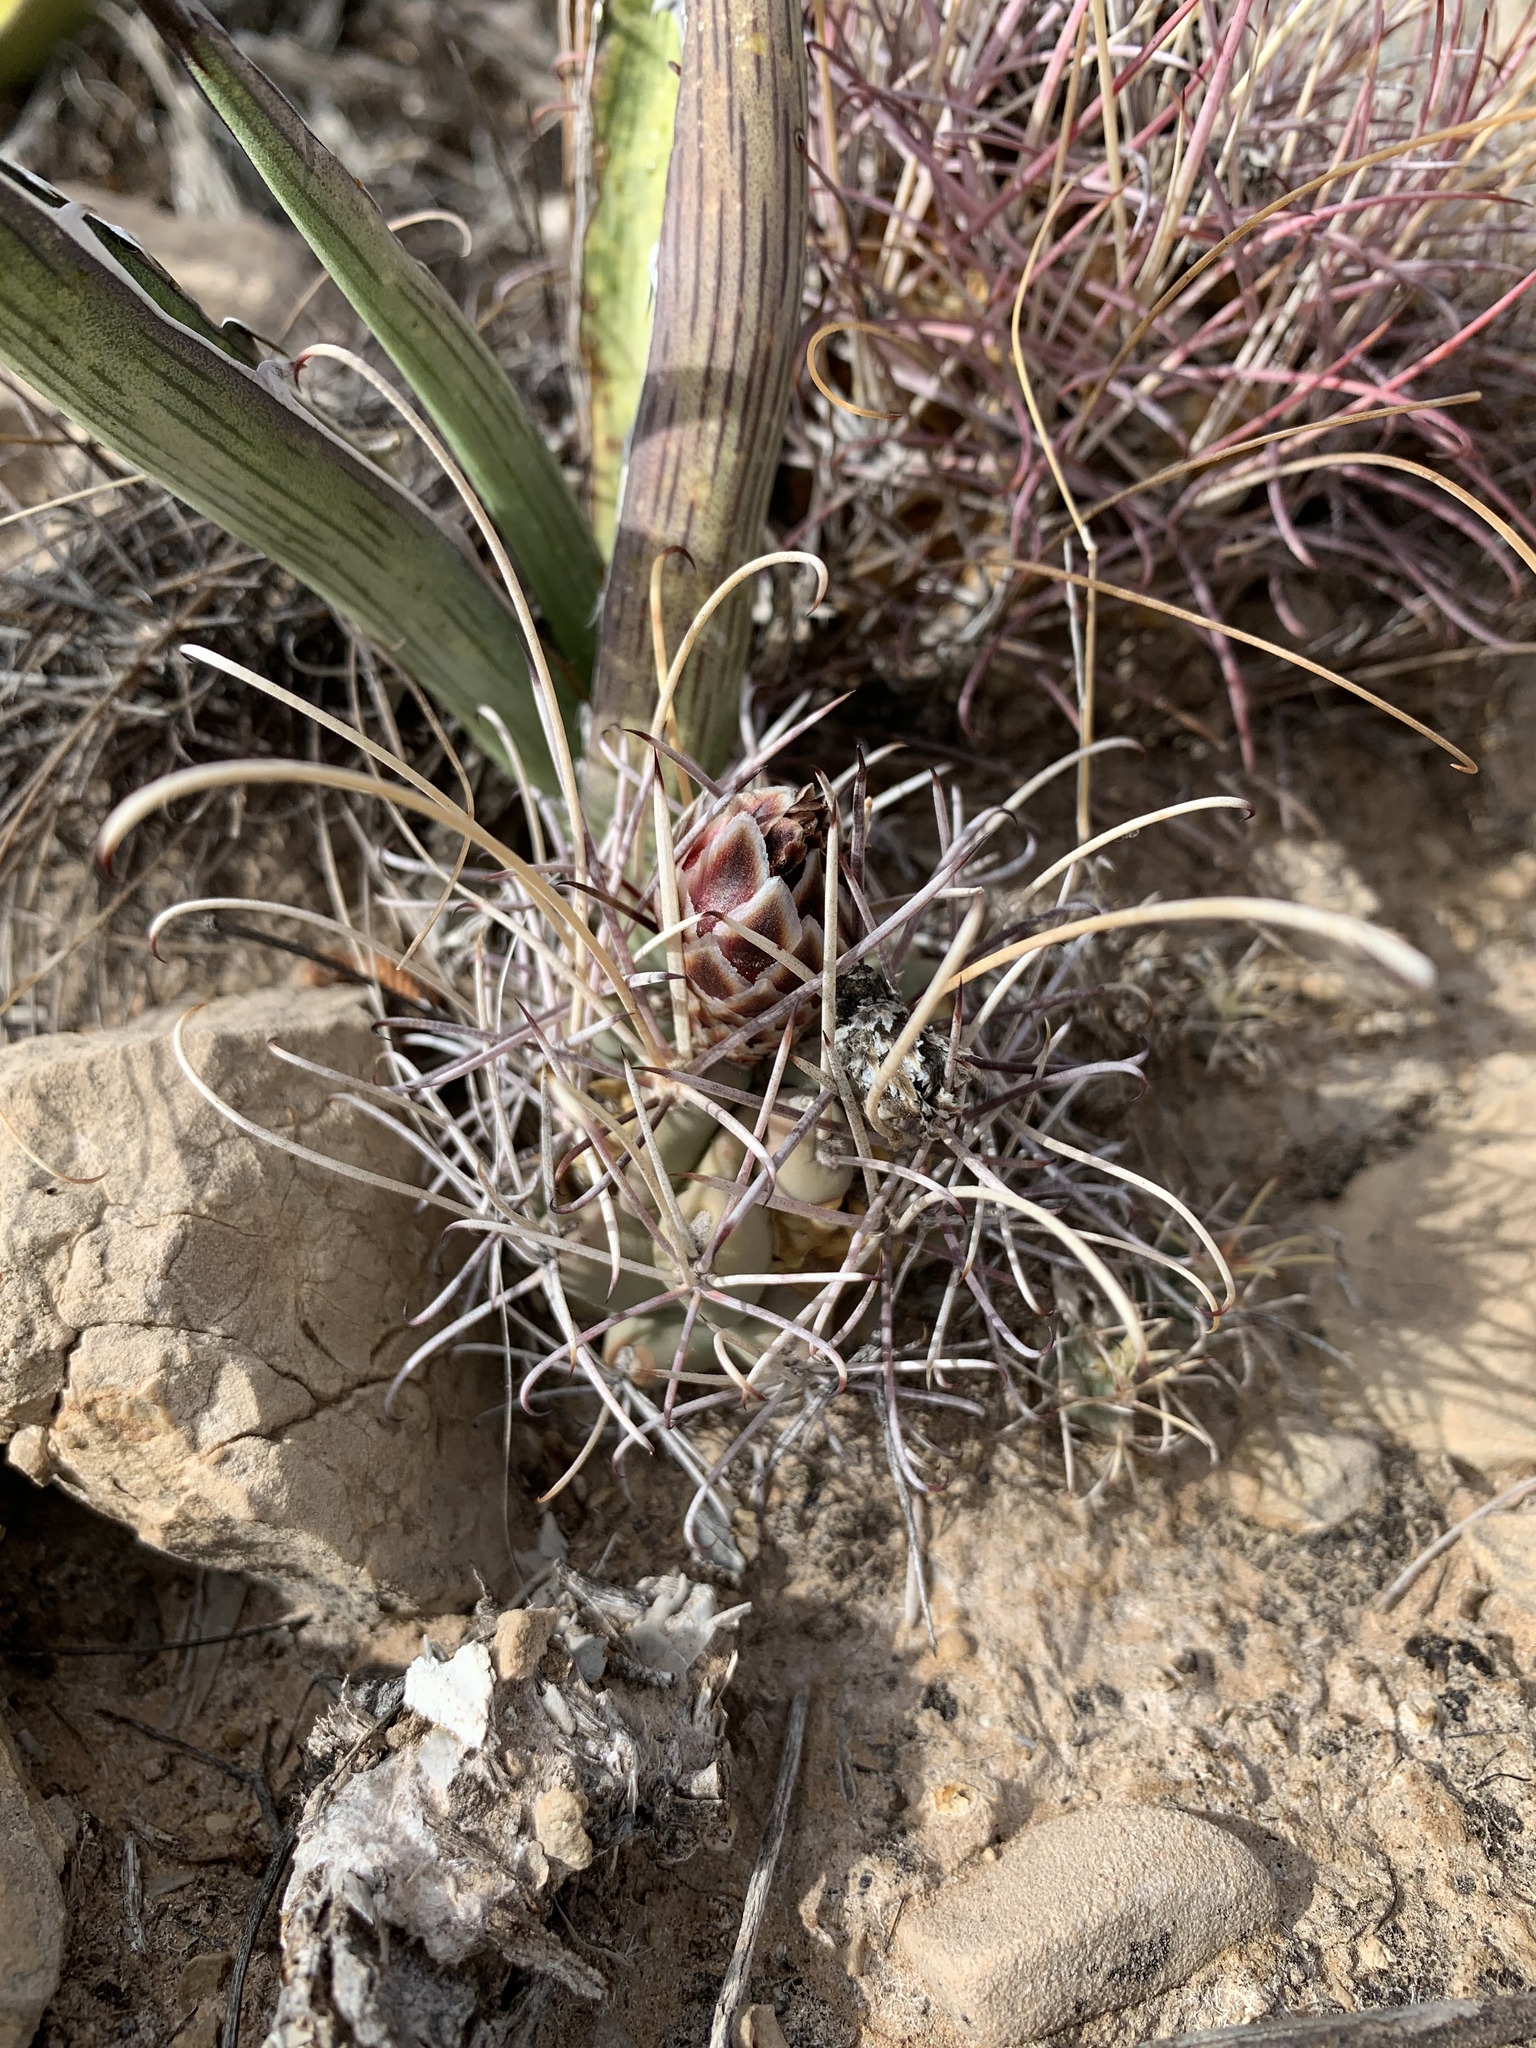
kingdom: Plantae
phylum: Tracheophyta
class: Magnoliopsida
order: Caryophyllales
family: Cactaceae
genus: Ferocactus
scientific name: Ferocactus uncinatus
